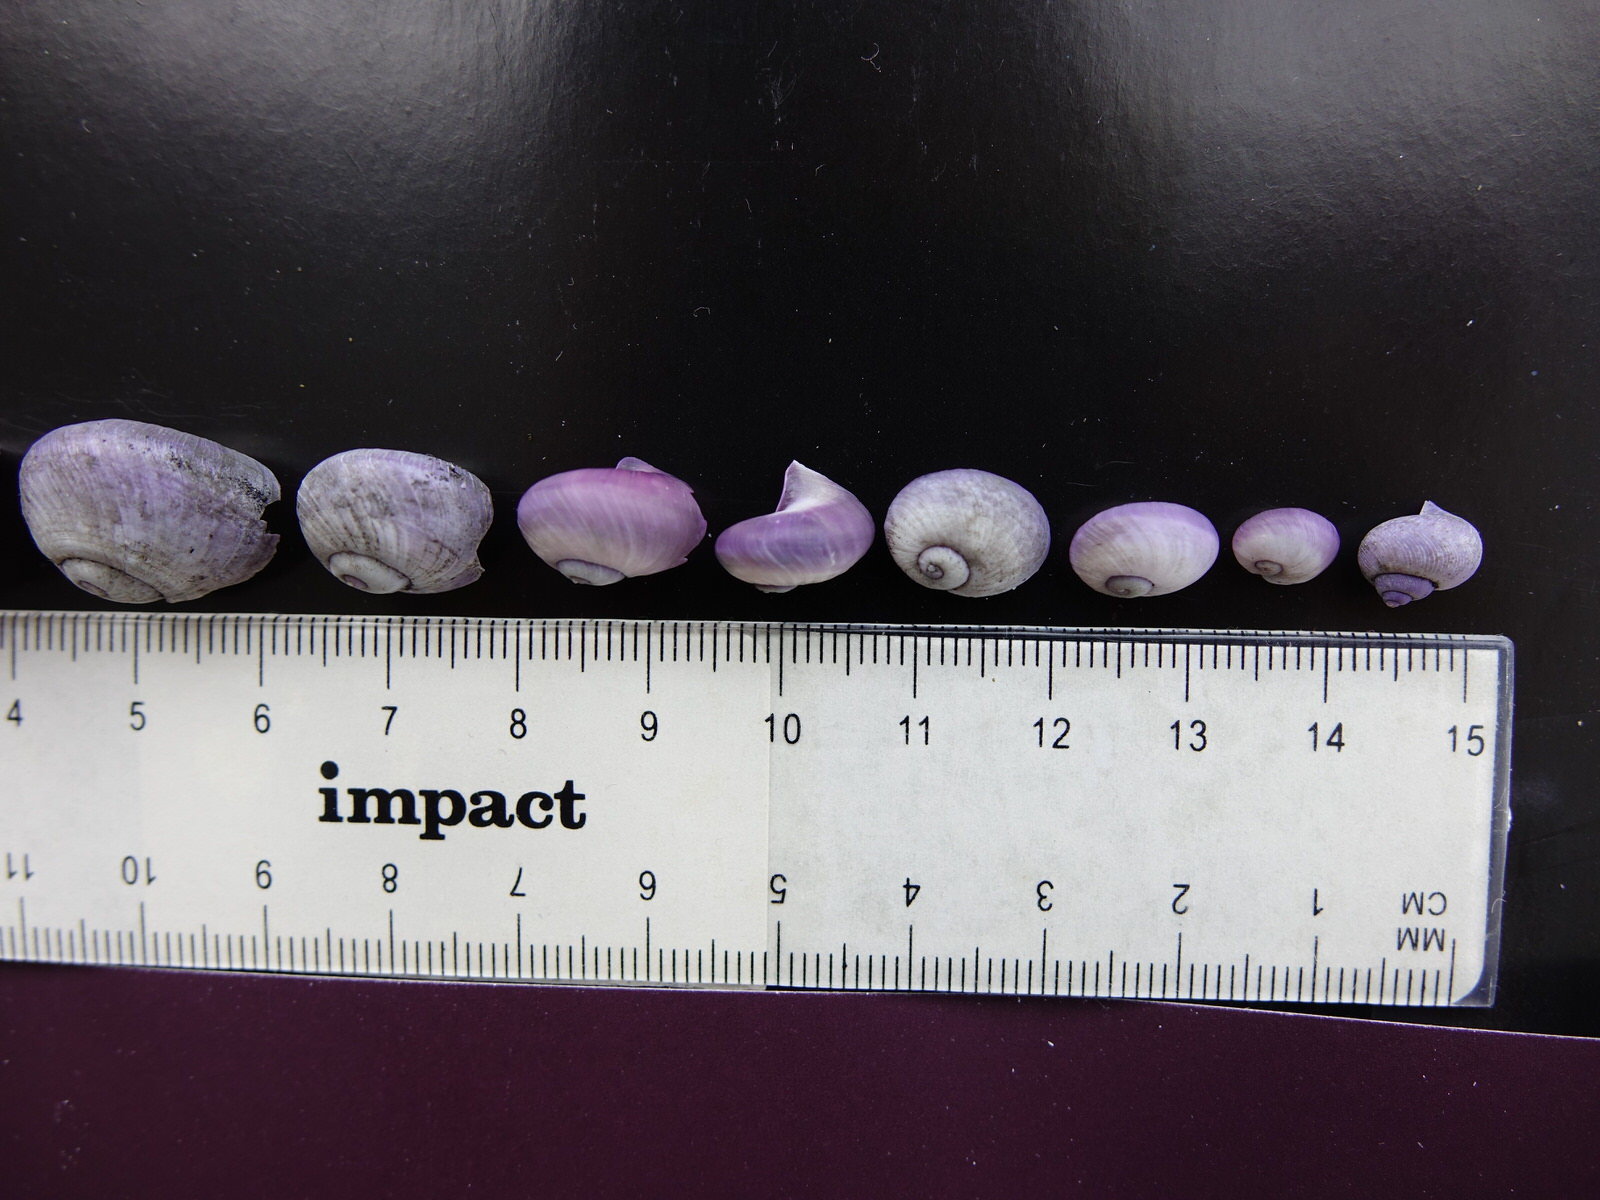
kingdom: Animalia
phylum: Mollusca
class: Gastropoda
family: Epitoniidae
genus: Janthina
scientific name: Janthina exigua
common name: Dwarf janthina
